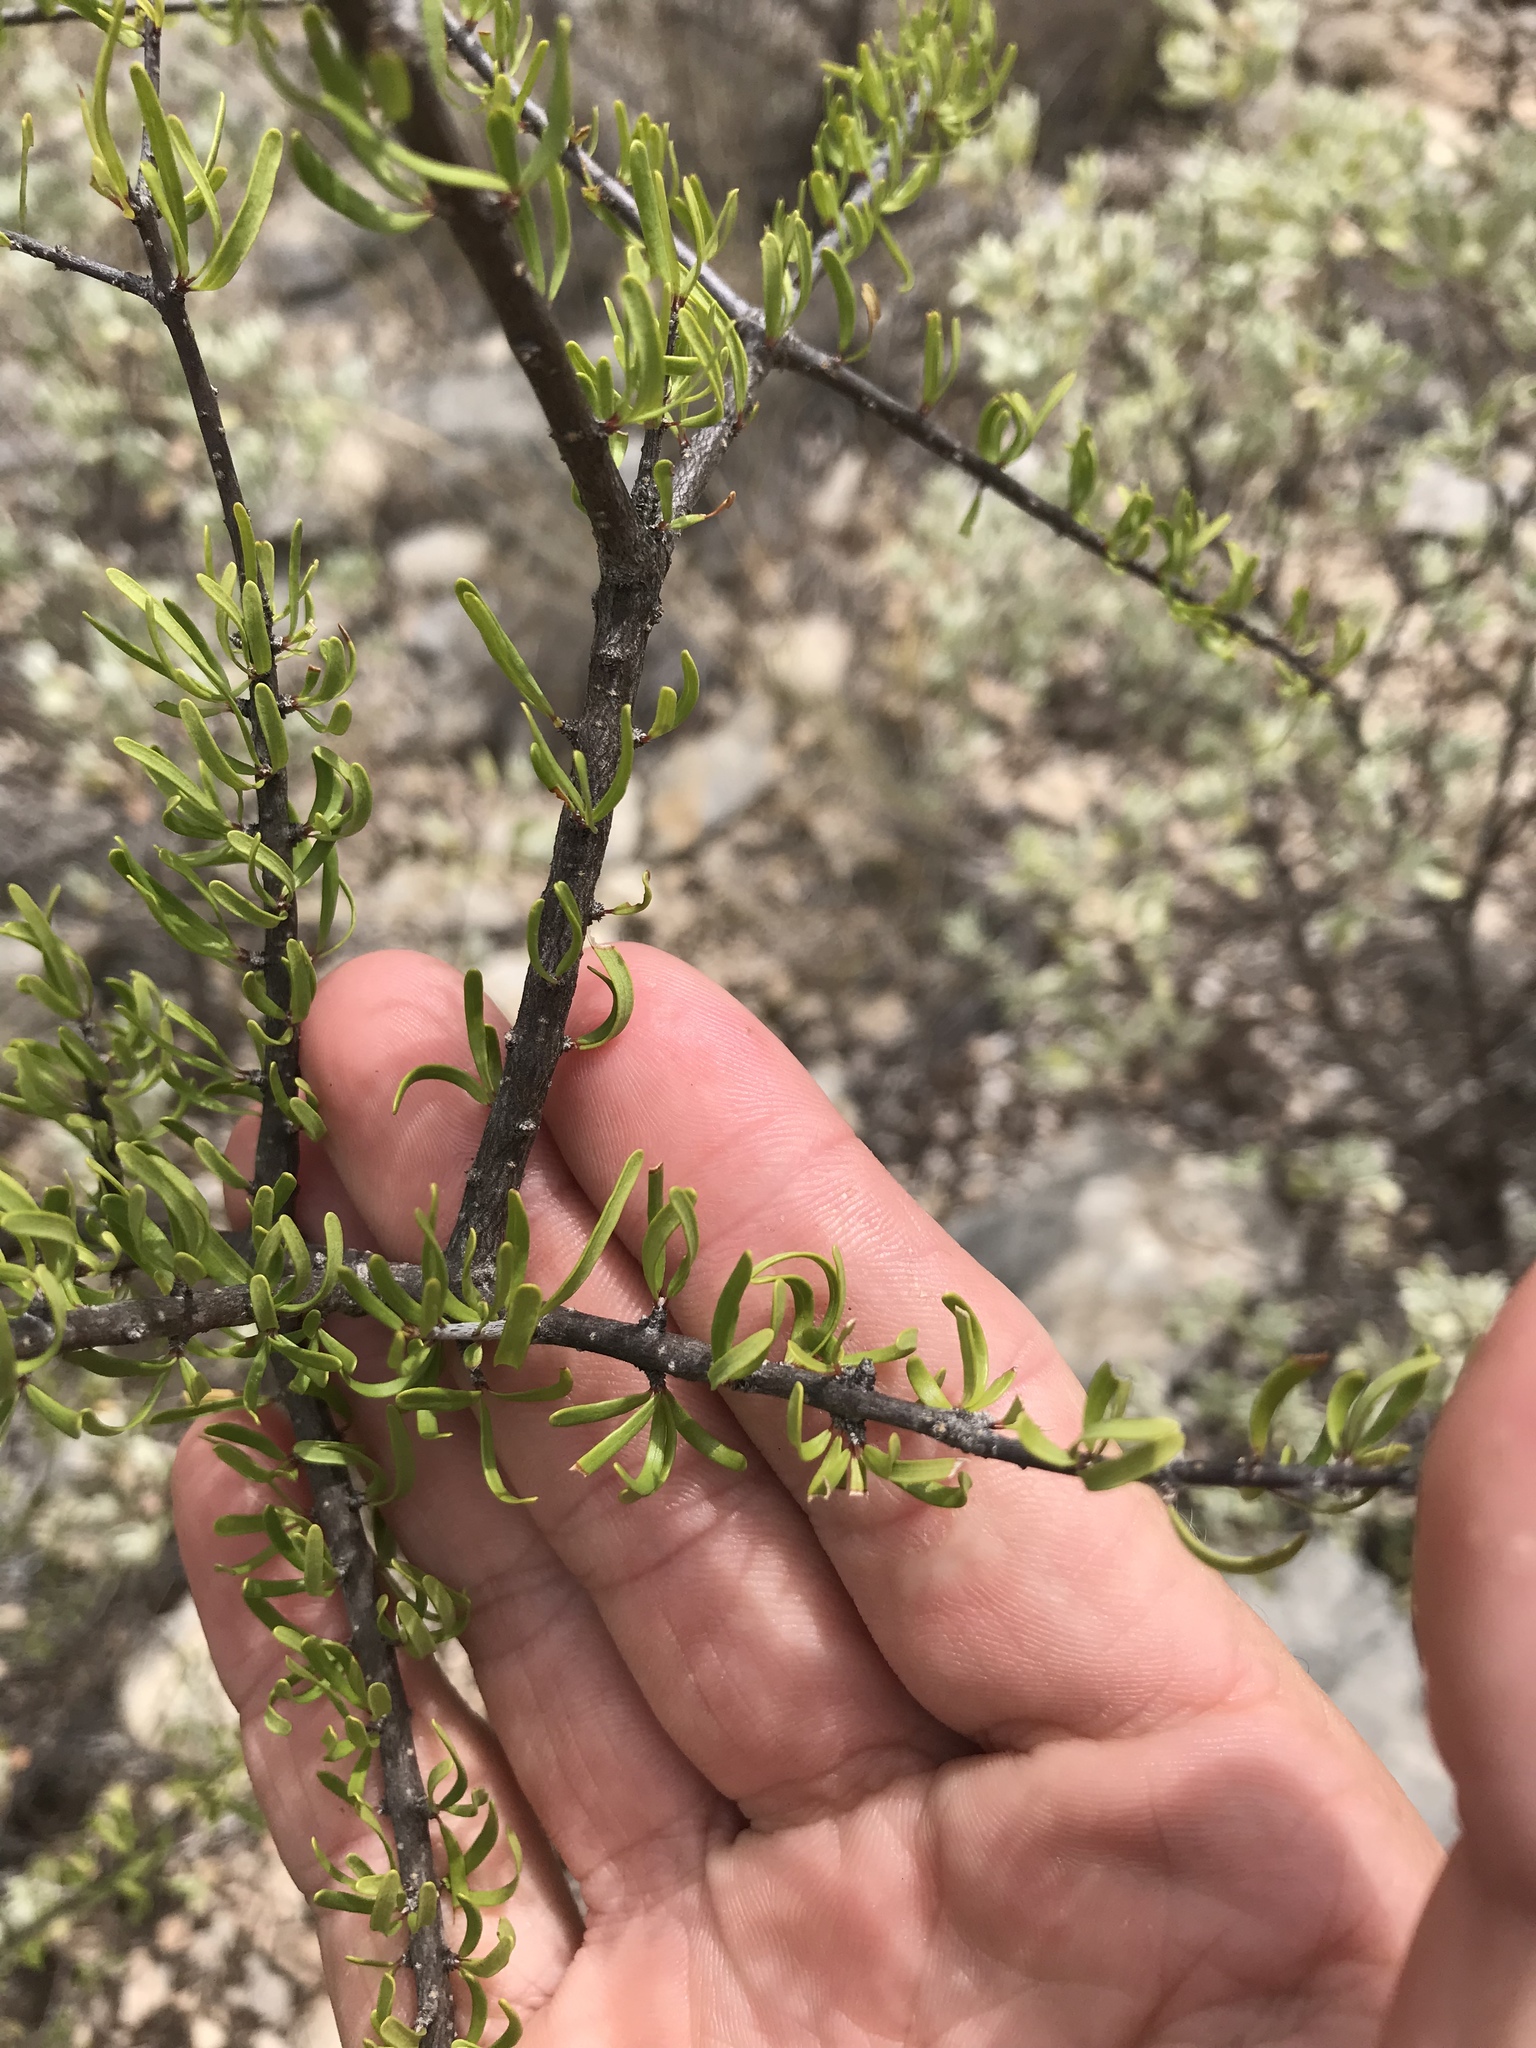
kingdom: Plantae
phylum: Tracheophyta
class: Magnoliopsida
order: Lamiales
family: Oleaceae
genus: Forestiera
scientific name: Forestiera angustifolia
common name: Elbowbush
